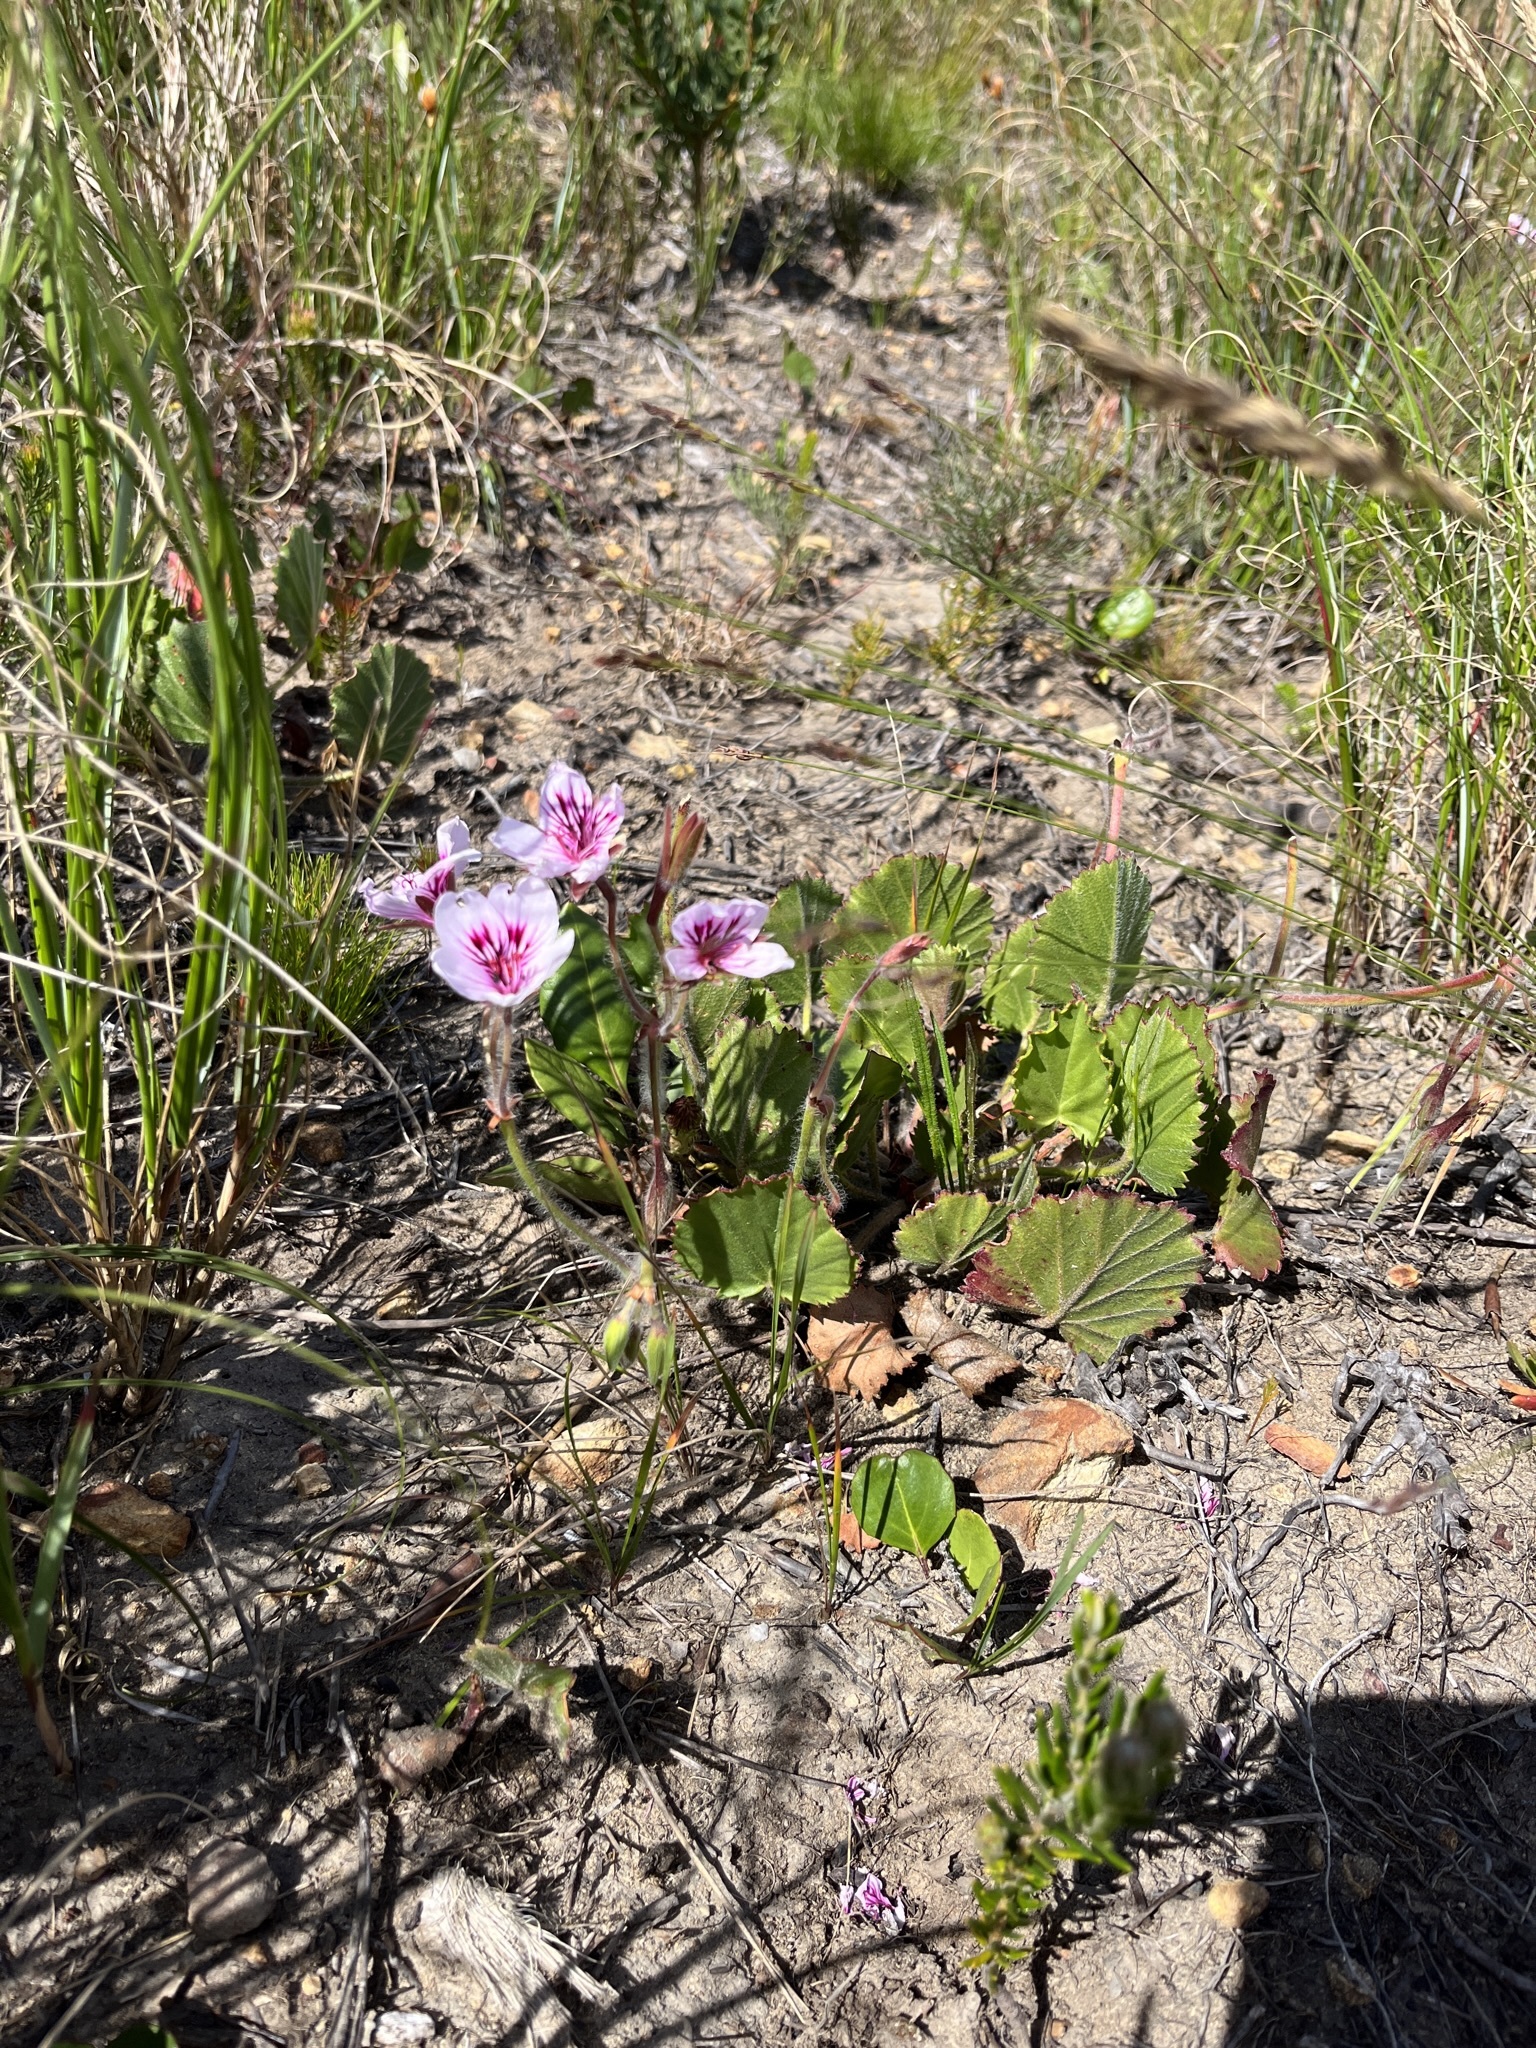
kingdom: Plantae
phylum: Tracheophyta
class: Magnoliopsida
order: Geraniales
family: Geraniaceae
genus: Pelargonium
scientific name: Pelargonium elegans
